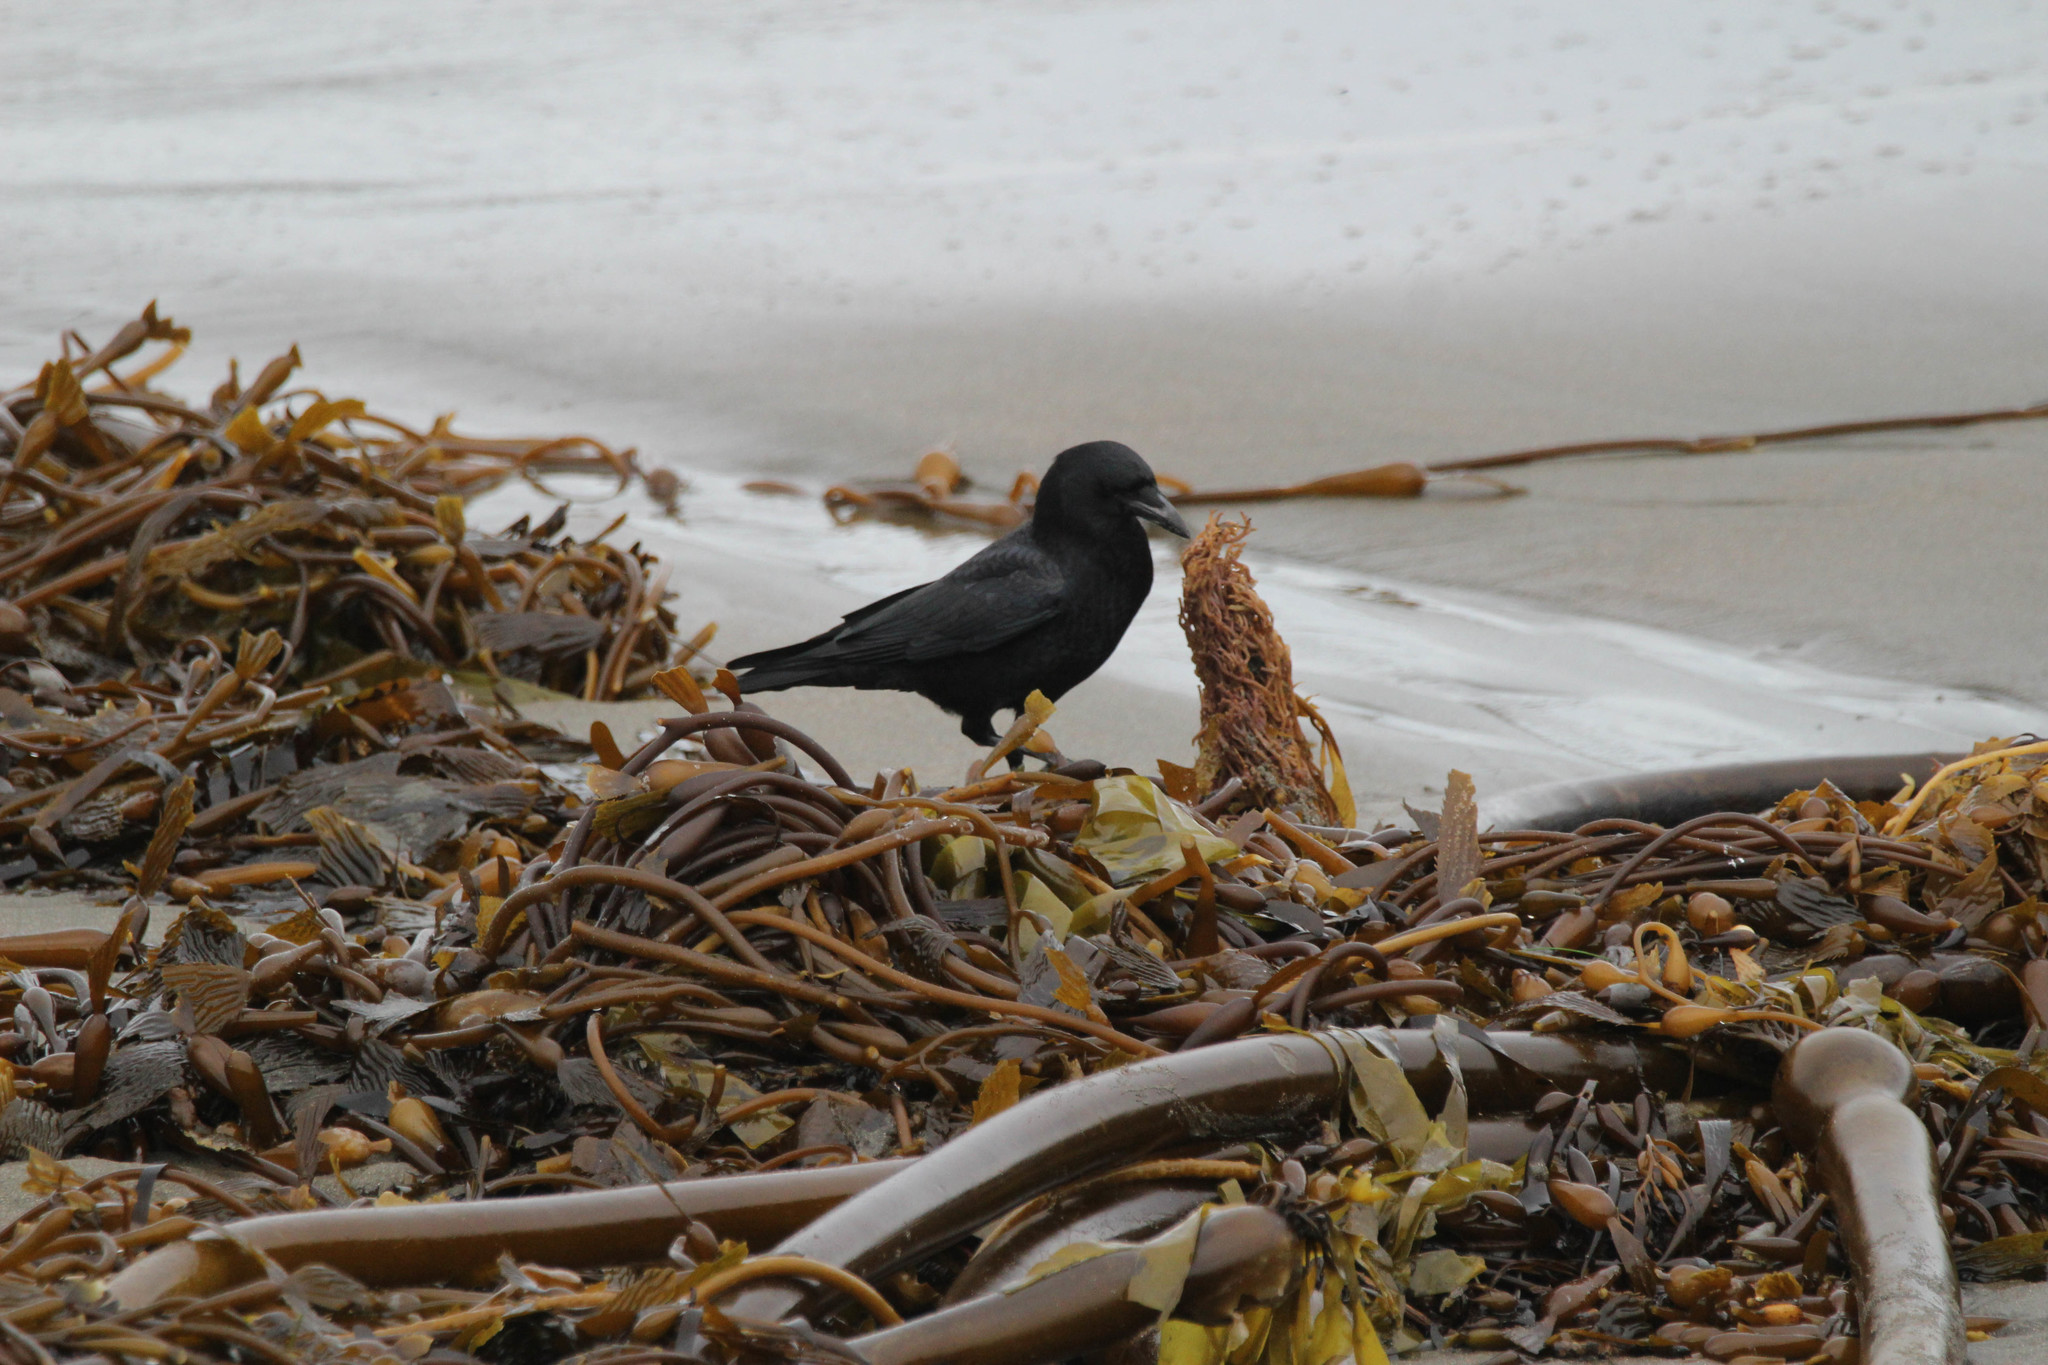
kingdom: Animalia
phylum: Chordata
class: Aves
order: Passeriformes
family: Corvidae
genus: Corvus
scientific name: Corvus brachyrhynchos
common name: American crow
